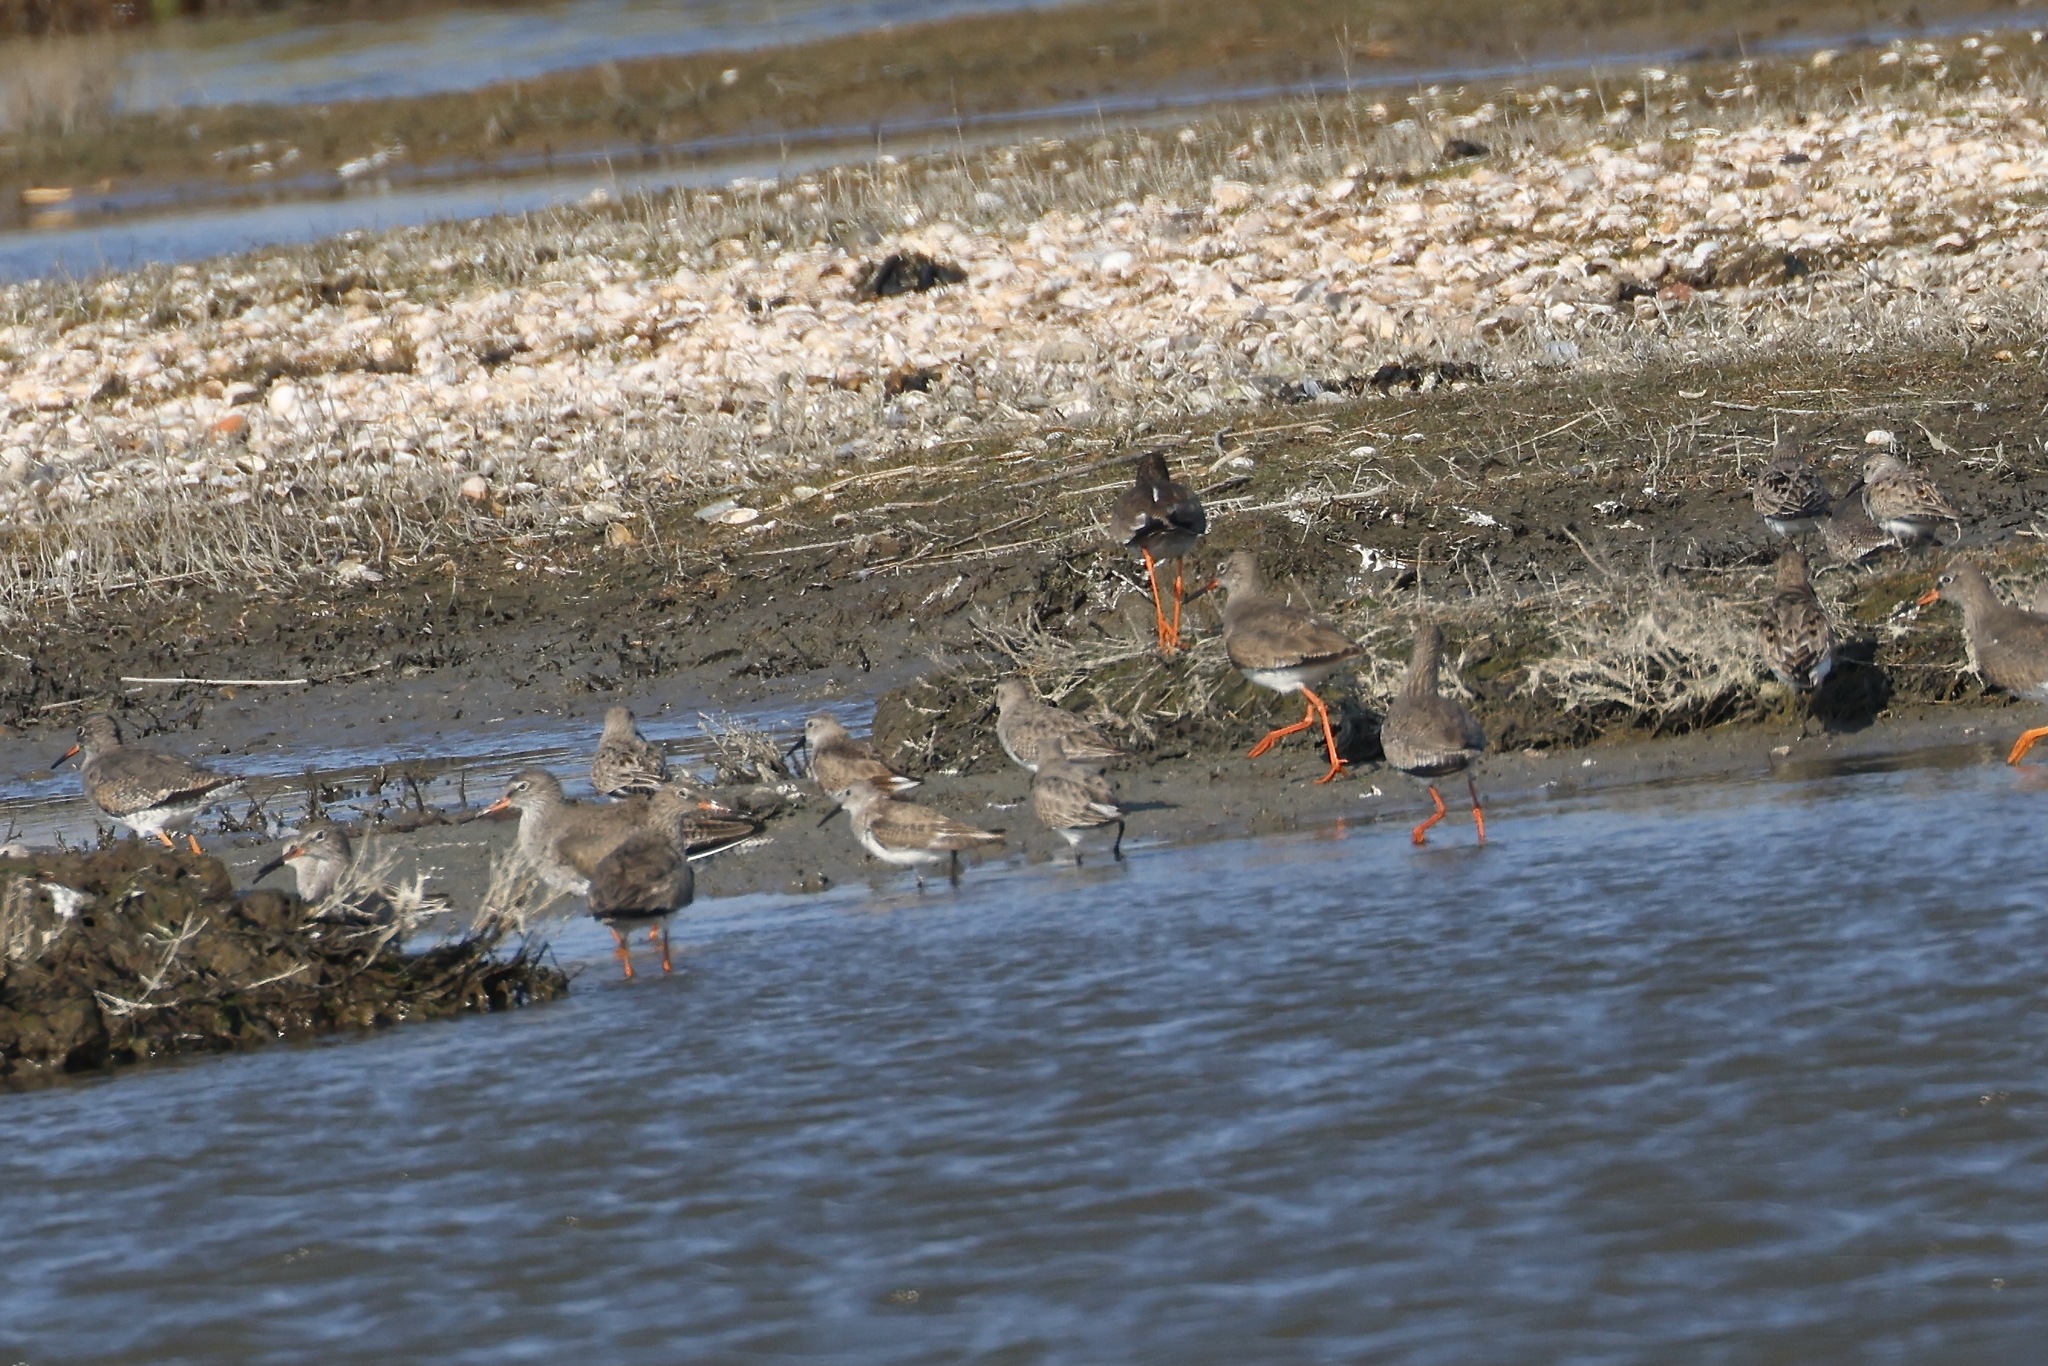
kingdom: Animalia
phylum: Chordata
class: Aves
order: Charadriiformes
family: Scolopacidae
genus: Calidris
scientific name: Calidris alpina
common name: Dunlin
